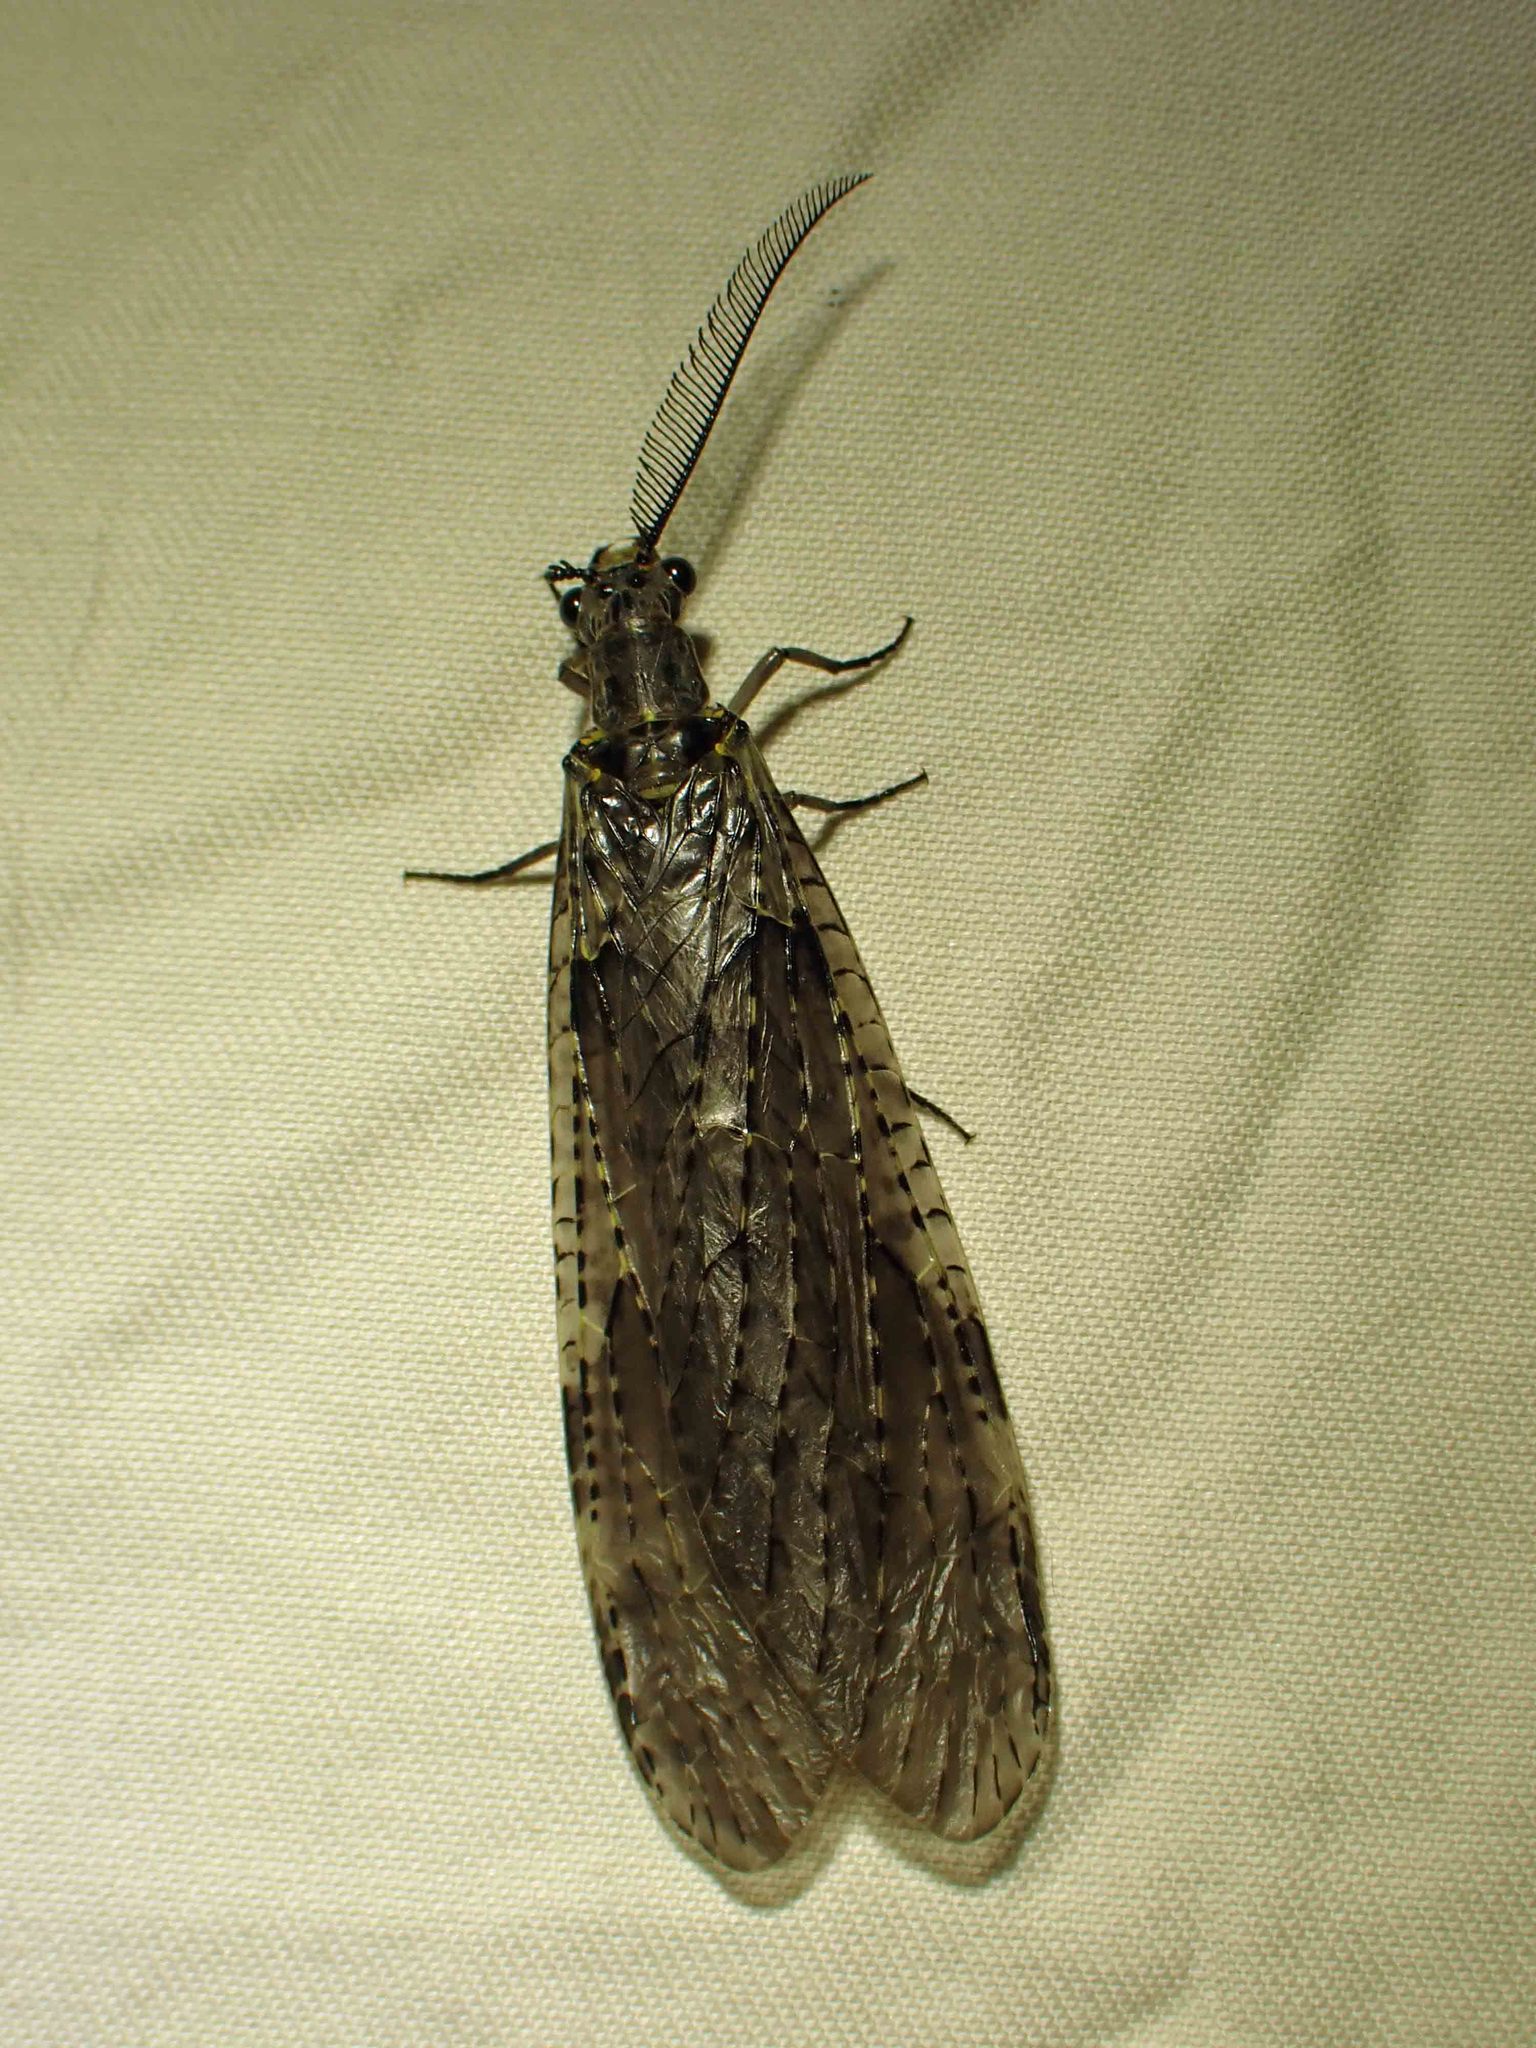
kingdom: Animalia
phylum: Arthropoda
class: Insecta
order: Megaloptera
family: Corydalidae
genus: Chauliodes
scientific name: Chauliodes rastricornis
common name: Spring fishfly
